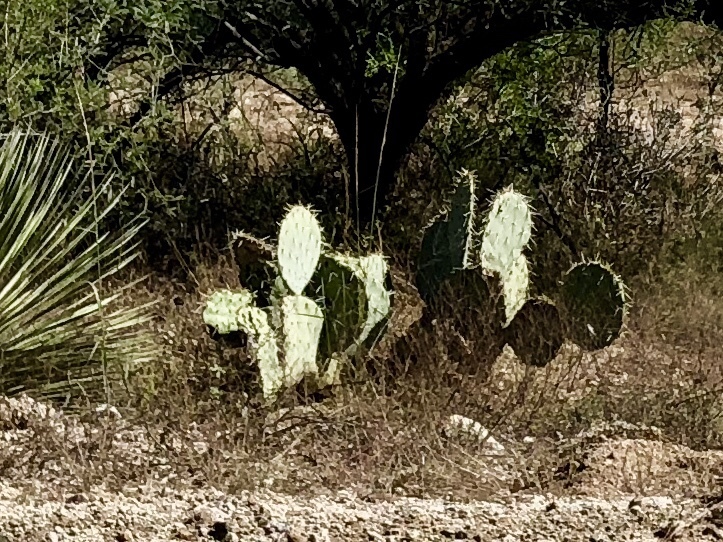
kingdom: Plantae
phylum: Tracheophyta
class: Magnoliopsida
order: Caryophyllales
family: Cactaceae
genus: Opuntia
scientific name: Opuntia engelmannii
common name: Cactus-apple
